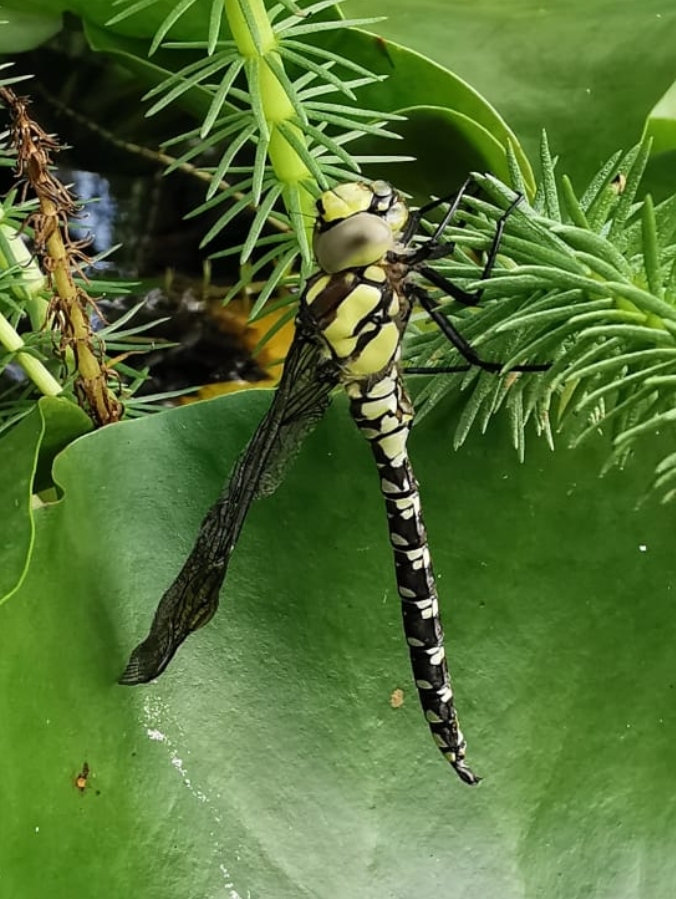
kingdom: Animalia
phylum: Arthropoda
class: Insecta
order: Odonata
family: Aeshnidae
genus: Aeshna
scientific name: Aeshna cyanea
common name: Southern hawker
